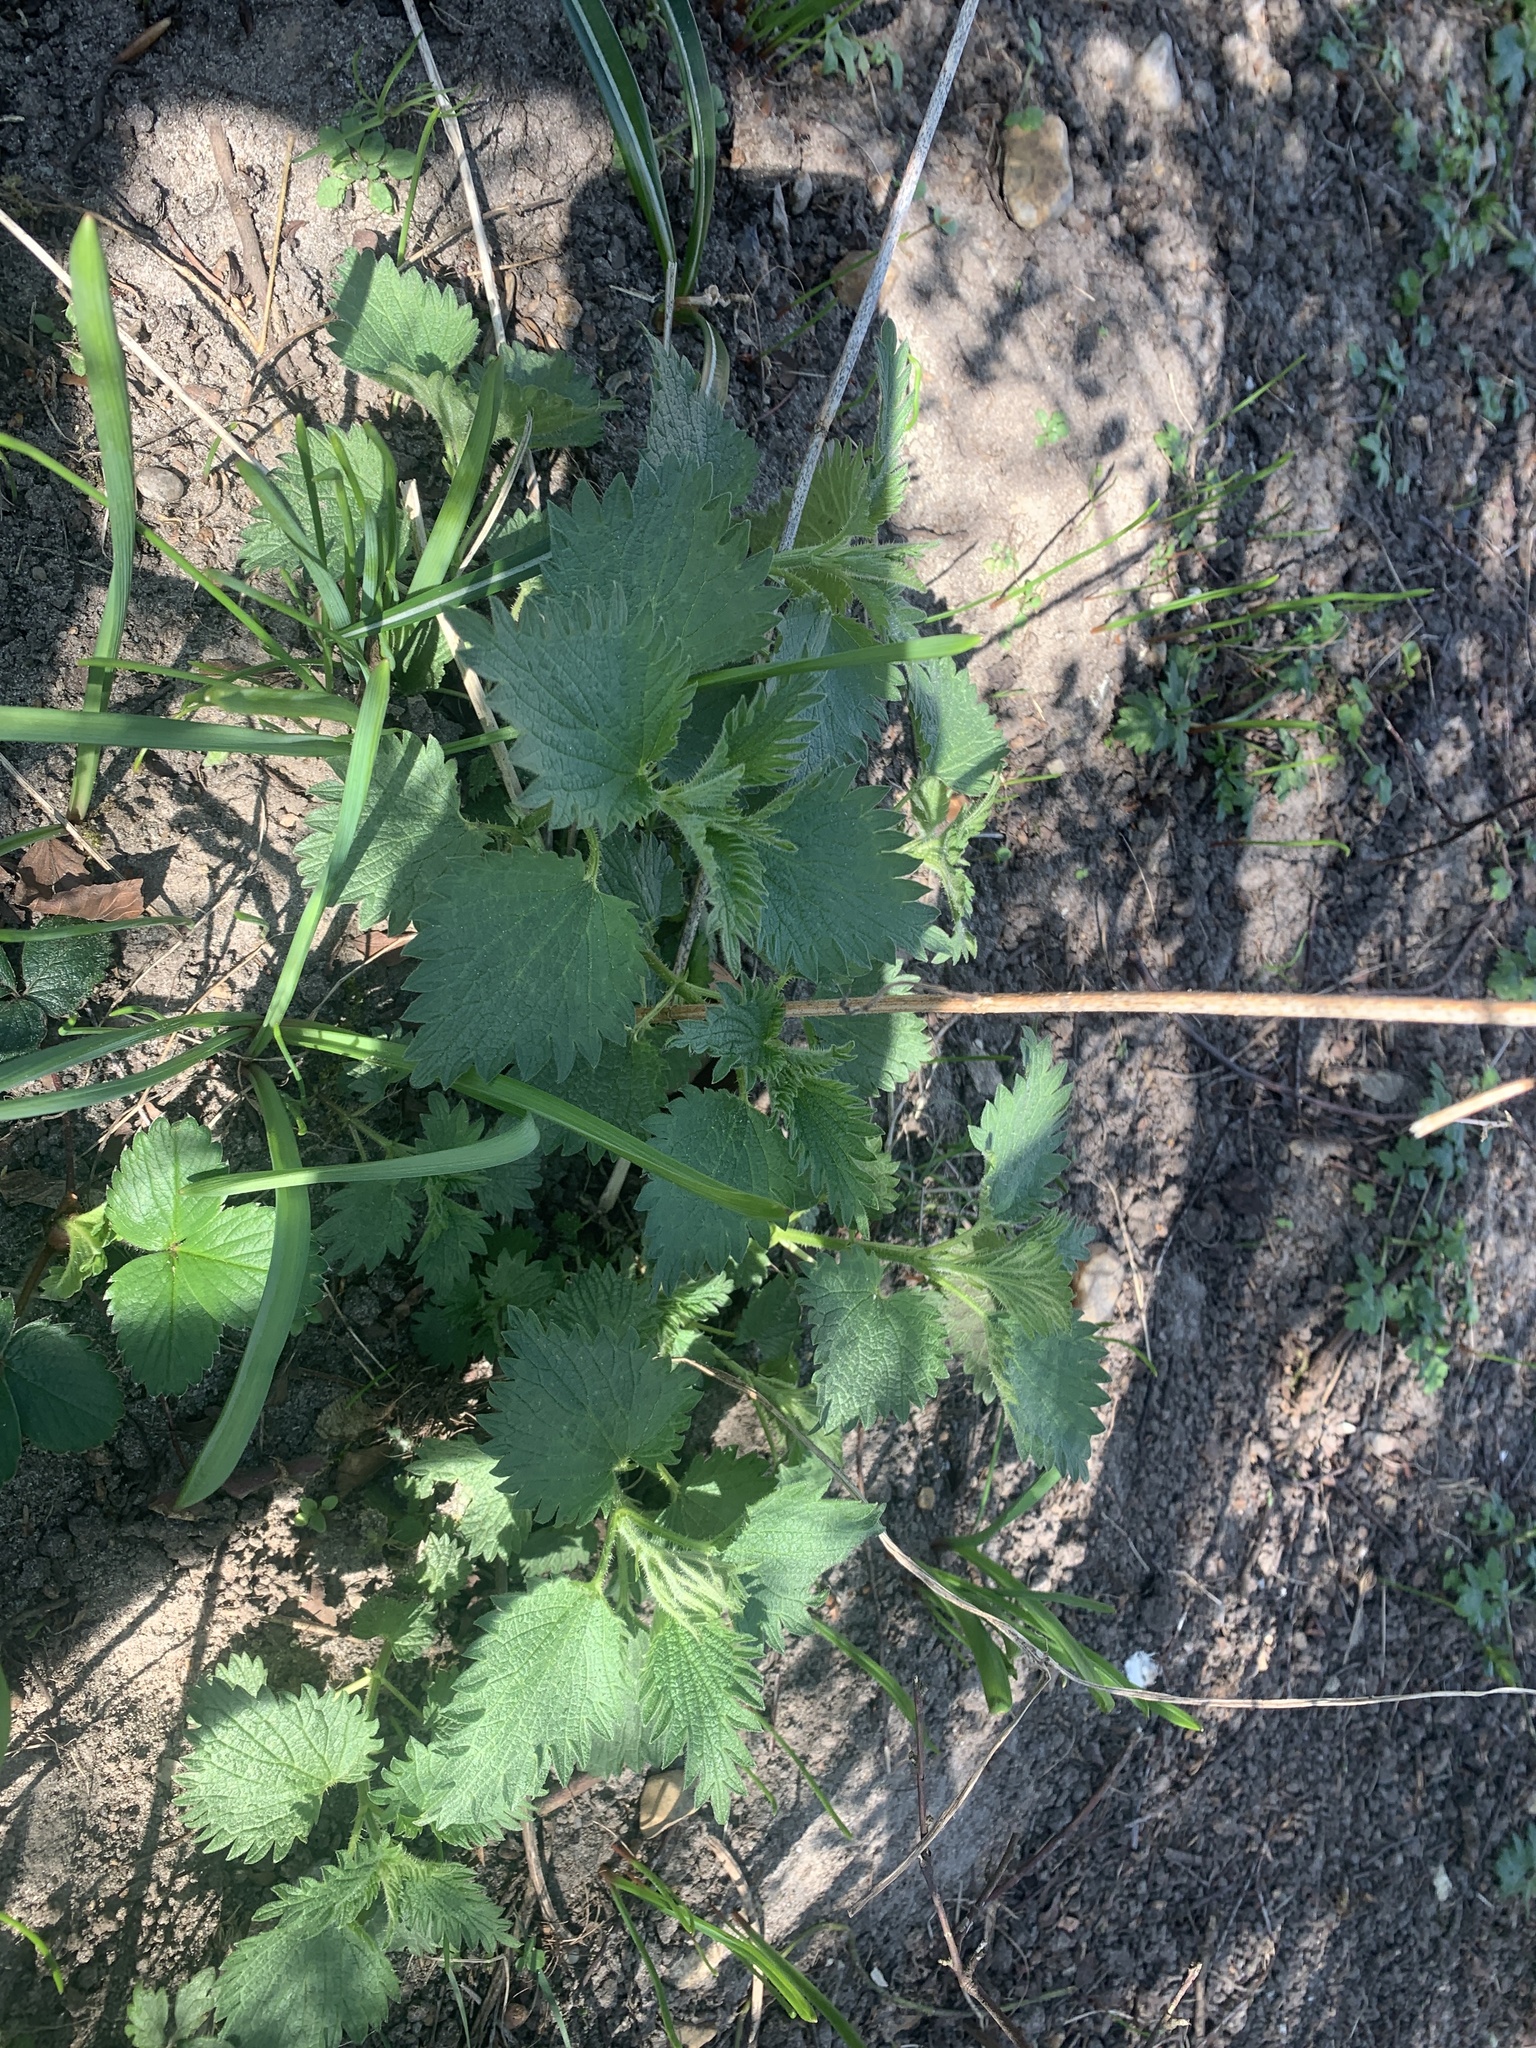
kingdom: Plantae
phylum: Tracheophyta
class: Magnoliopsida
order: Rosales
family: Urticaceae
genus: Urtica
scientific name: Urtica dioica
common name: Common nettle
